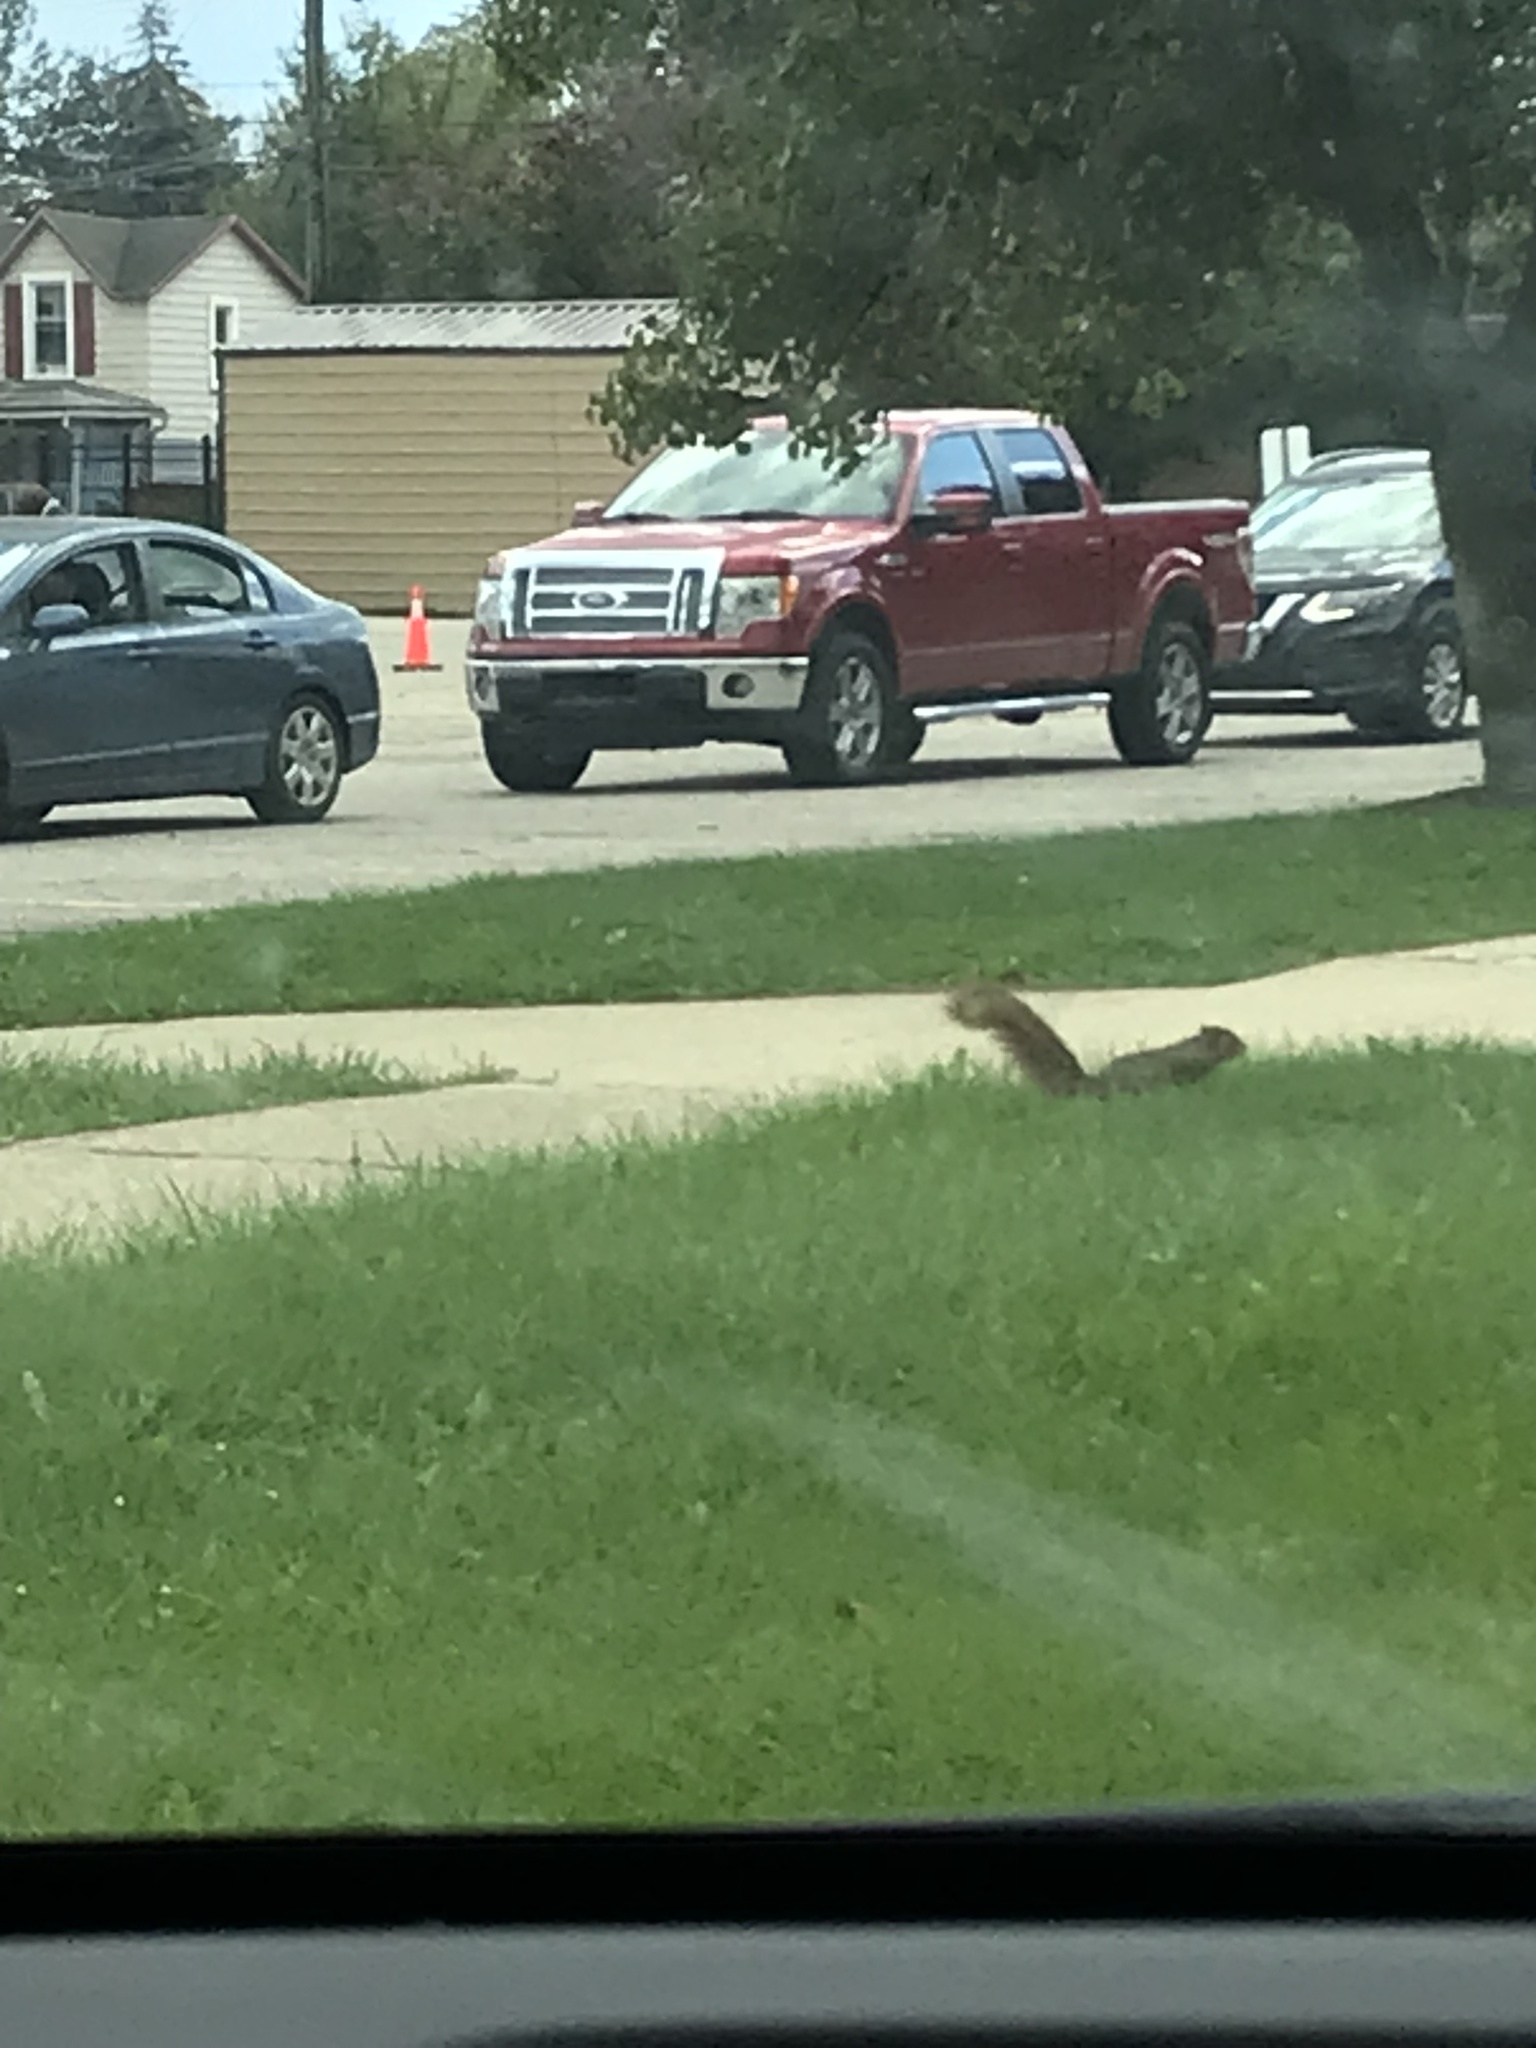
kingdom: Animalia
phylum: Chordata
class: Mammalia
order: Rodentia
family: Sciuridae
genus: Sciurus
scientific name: Sciurus niger
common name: Fox squirrel
